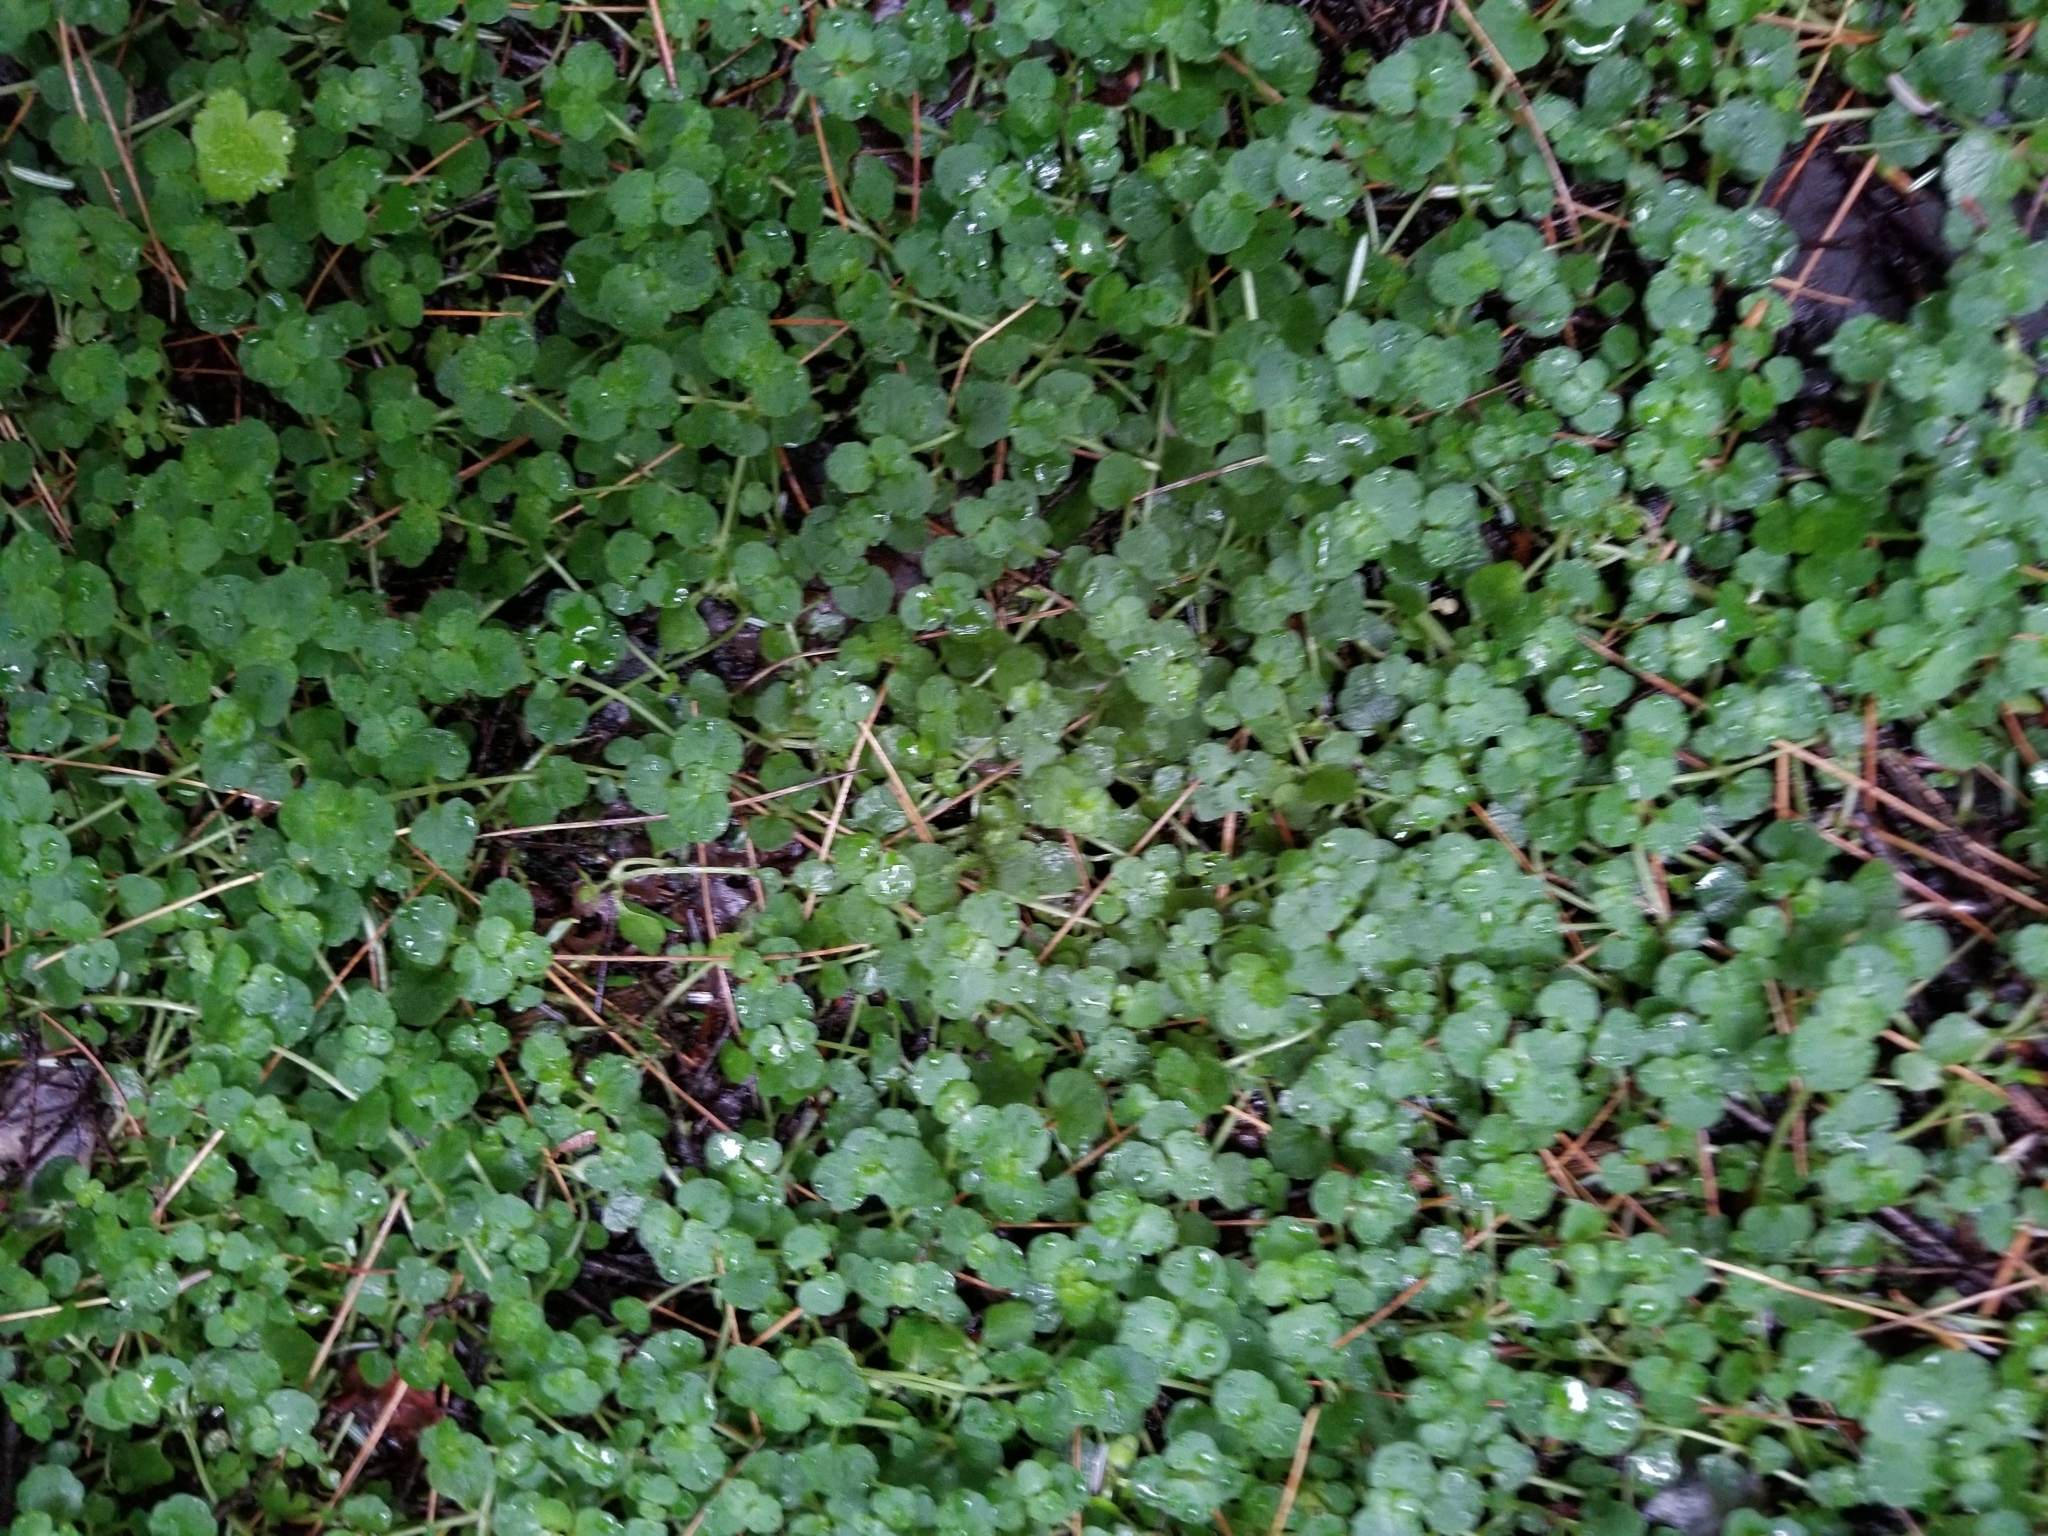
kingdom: Plantae
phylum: Tracheophyta
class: Magnoliopsida
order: Saxifragales
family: Saxifragaceae
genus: Chrysosplenium
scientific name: Chrysosplenium americanum
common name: American golden-saxifrage
